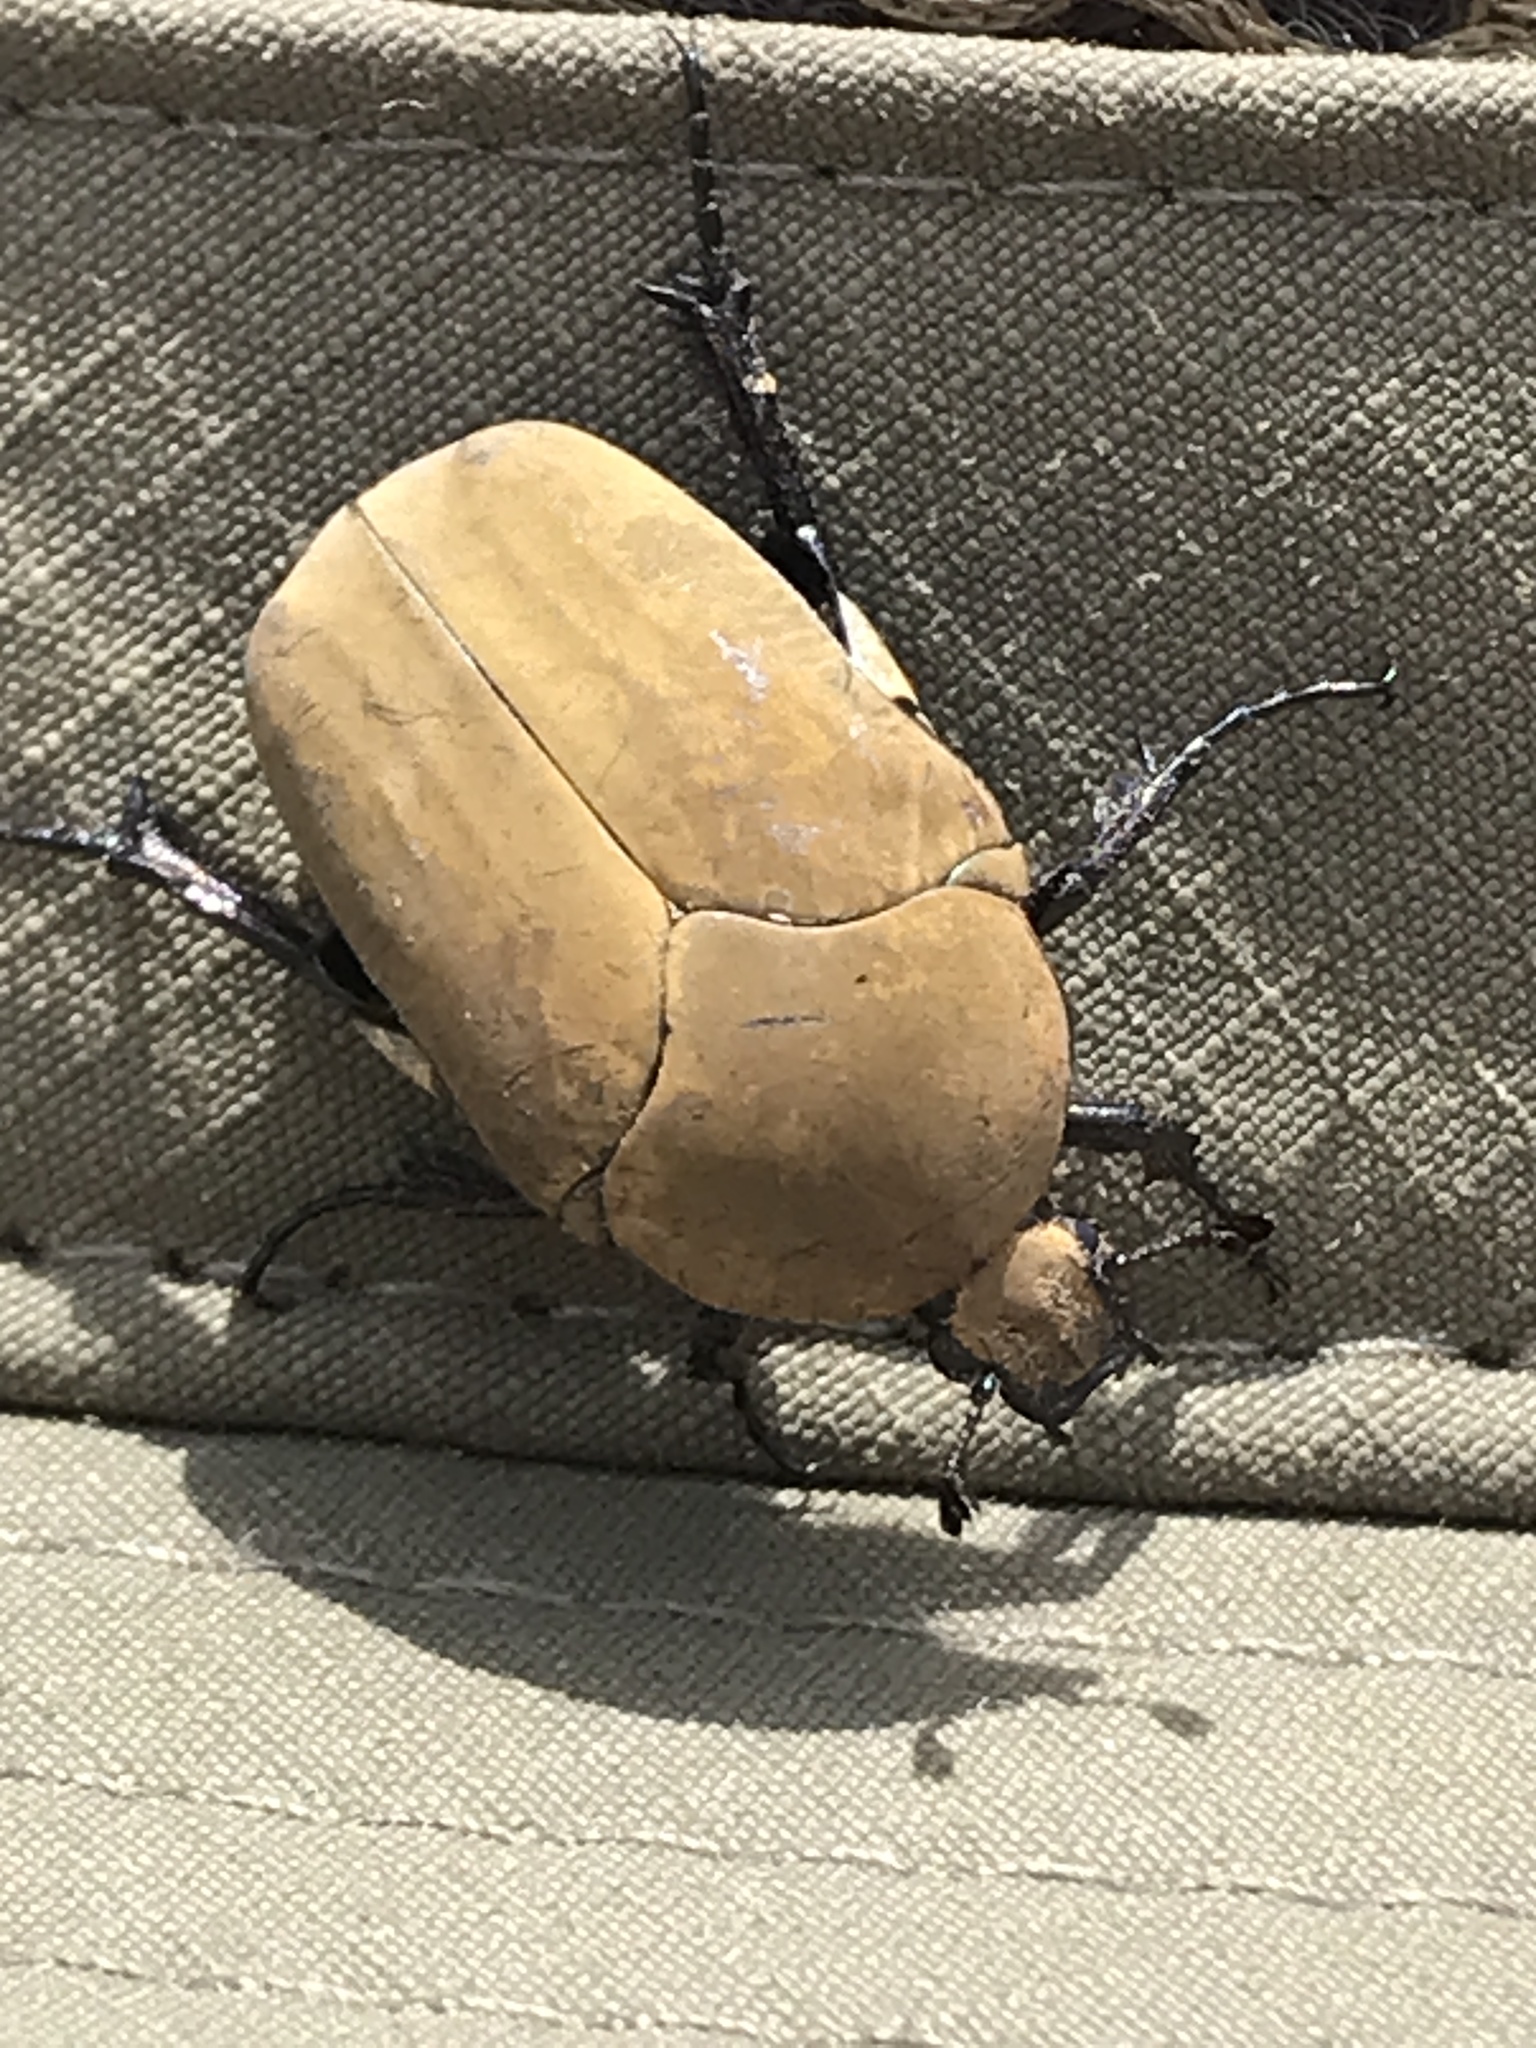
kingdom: Animalia
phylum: Arthropoda
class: Insecta
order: Coleoptera
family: Scarabaeidae
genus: Hologymnetis
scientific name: Hologymnetis cinerea
